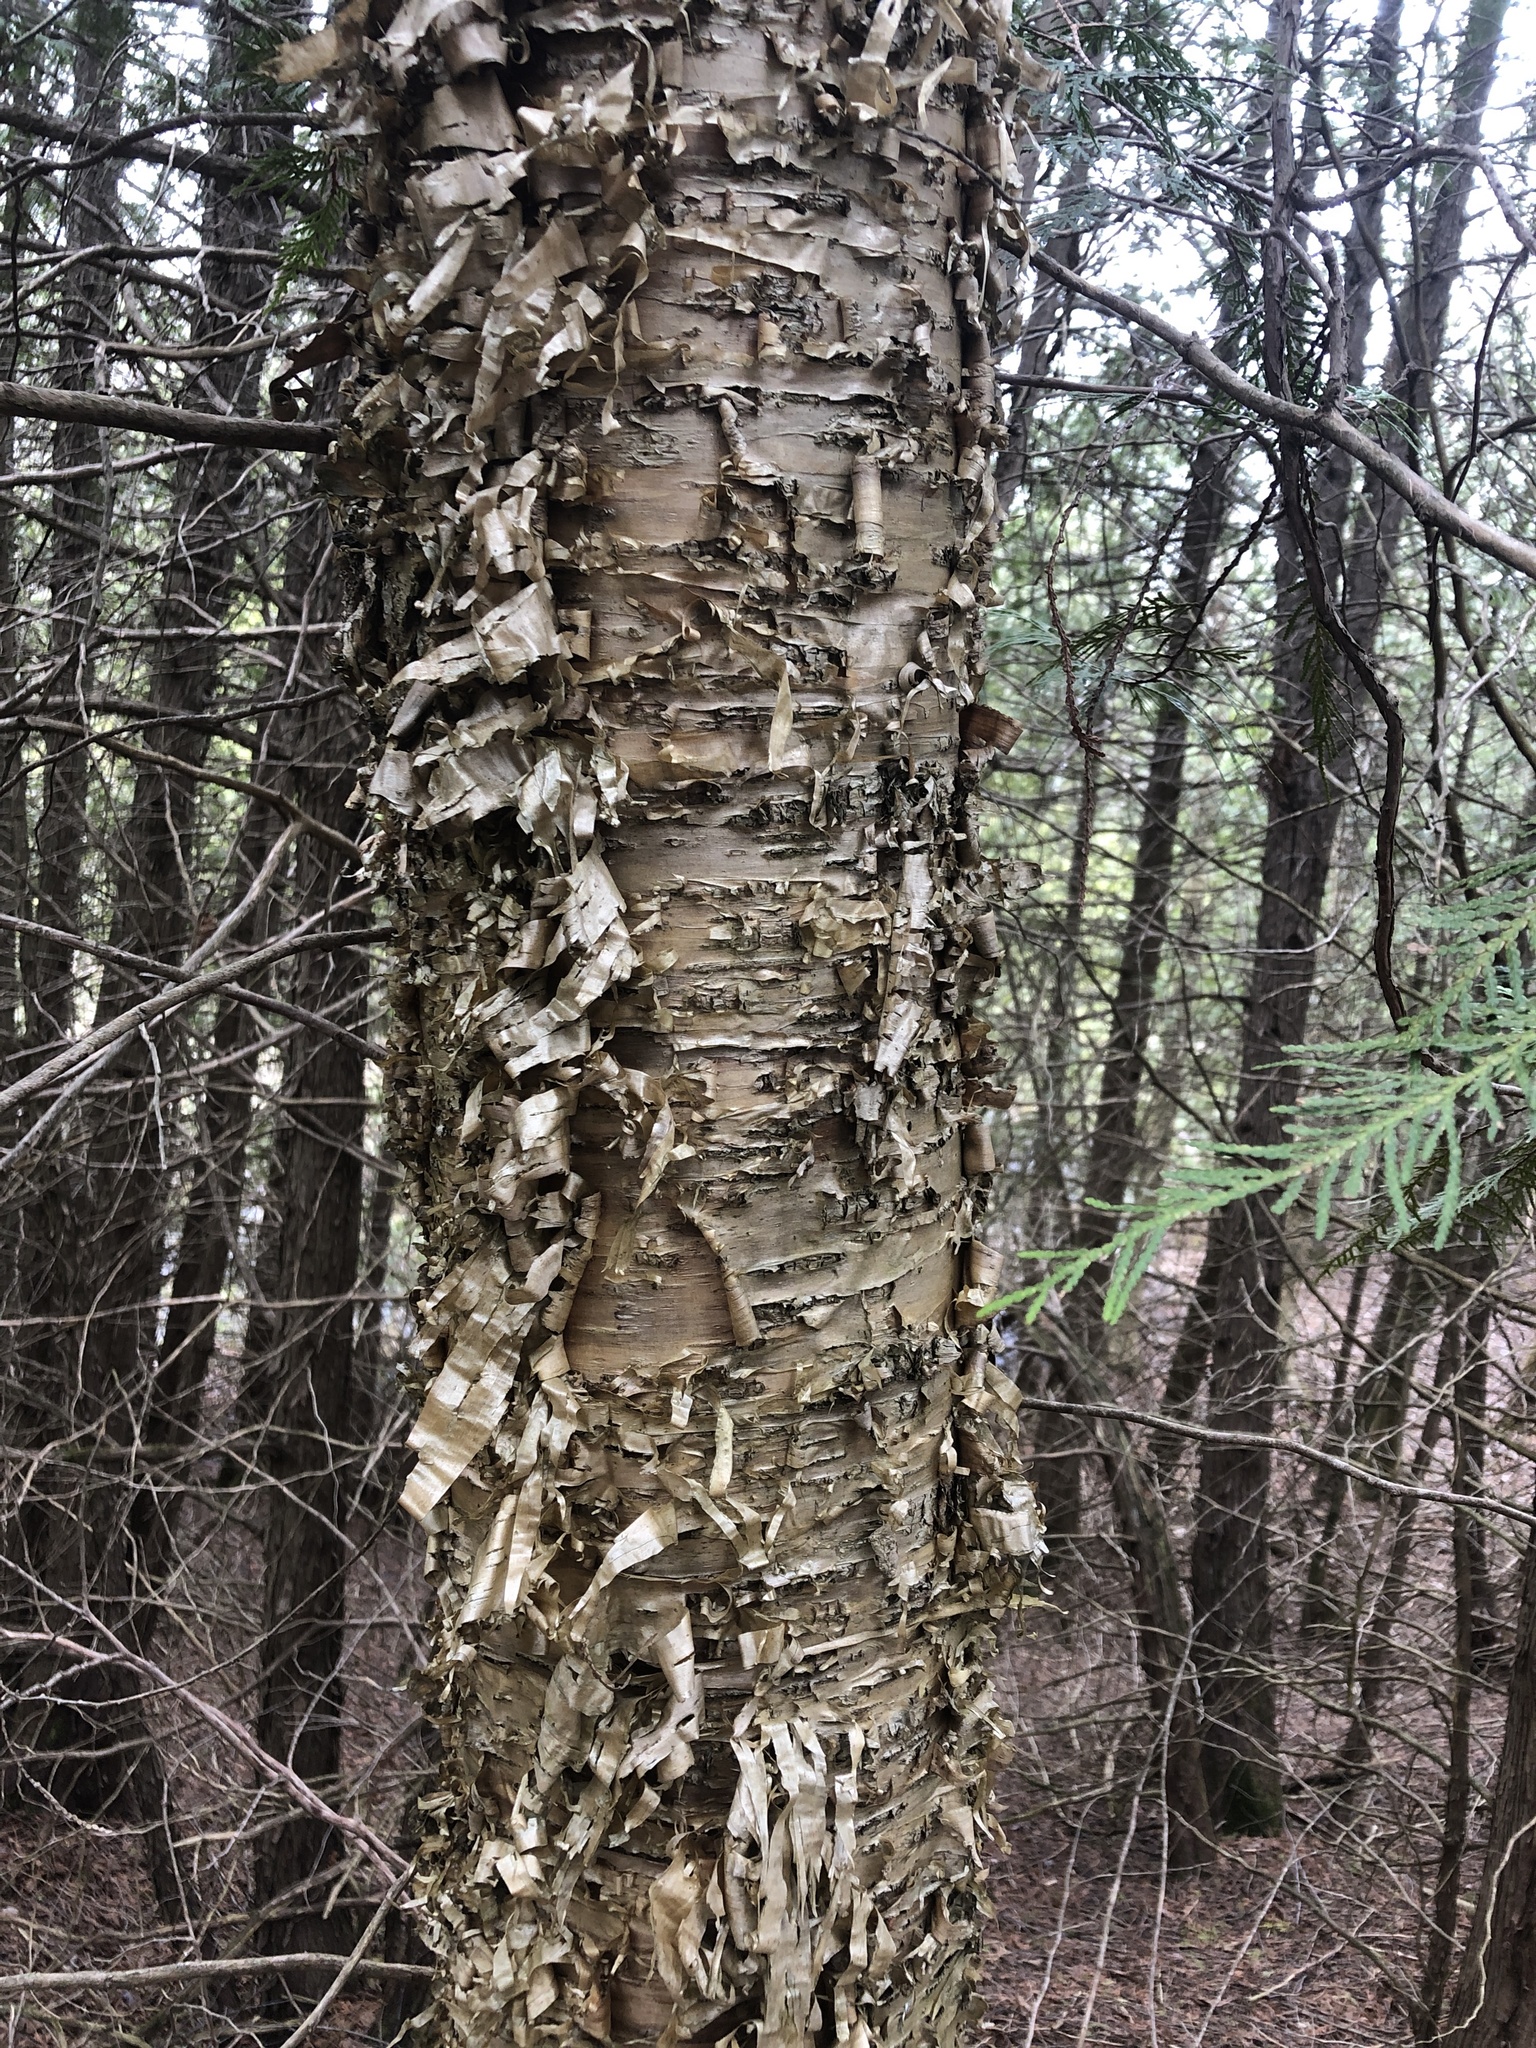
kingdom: Plantae
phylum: Tracheophyta
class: Magnoliopsida
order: Fagales
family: Betulaceae
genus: Betula
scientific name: Betula alleghaniensis
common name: Yellow birch
